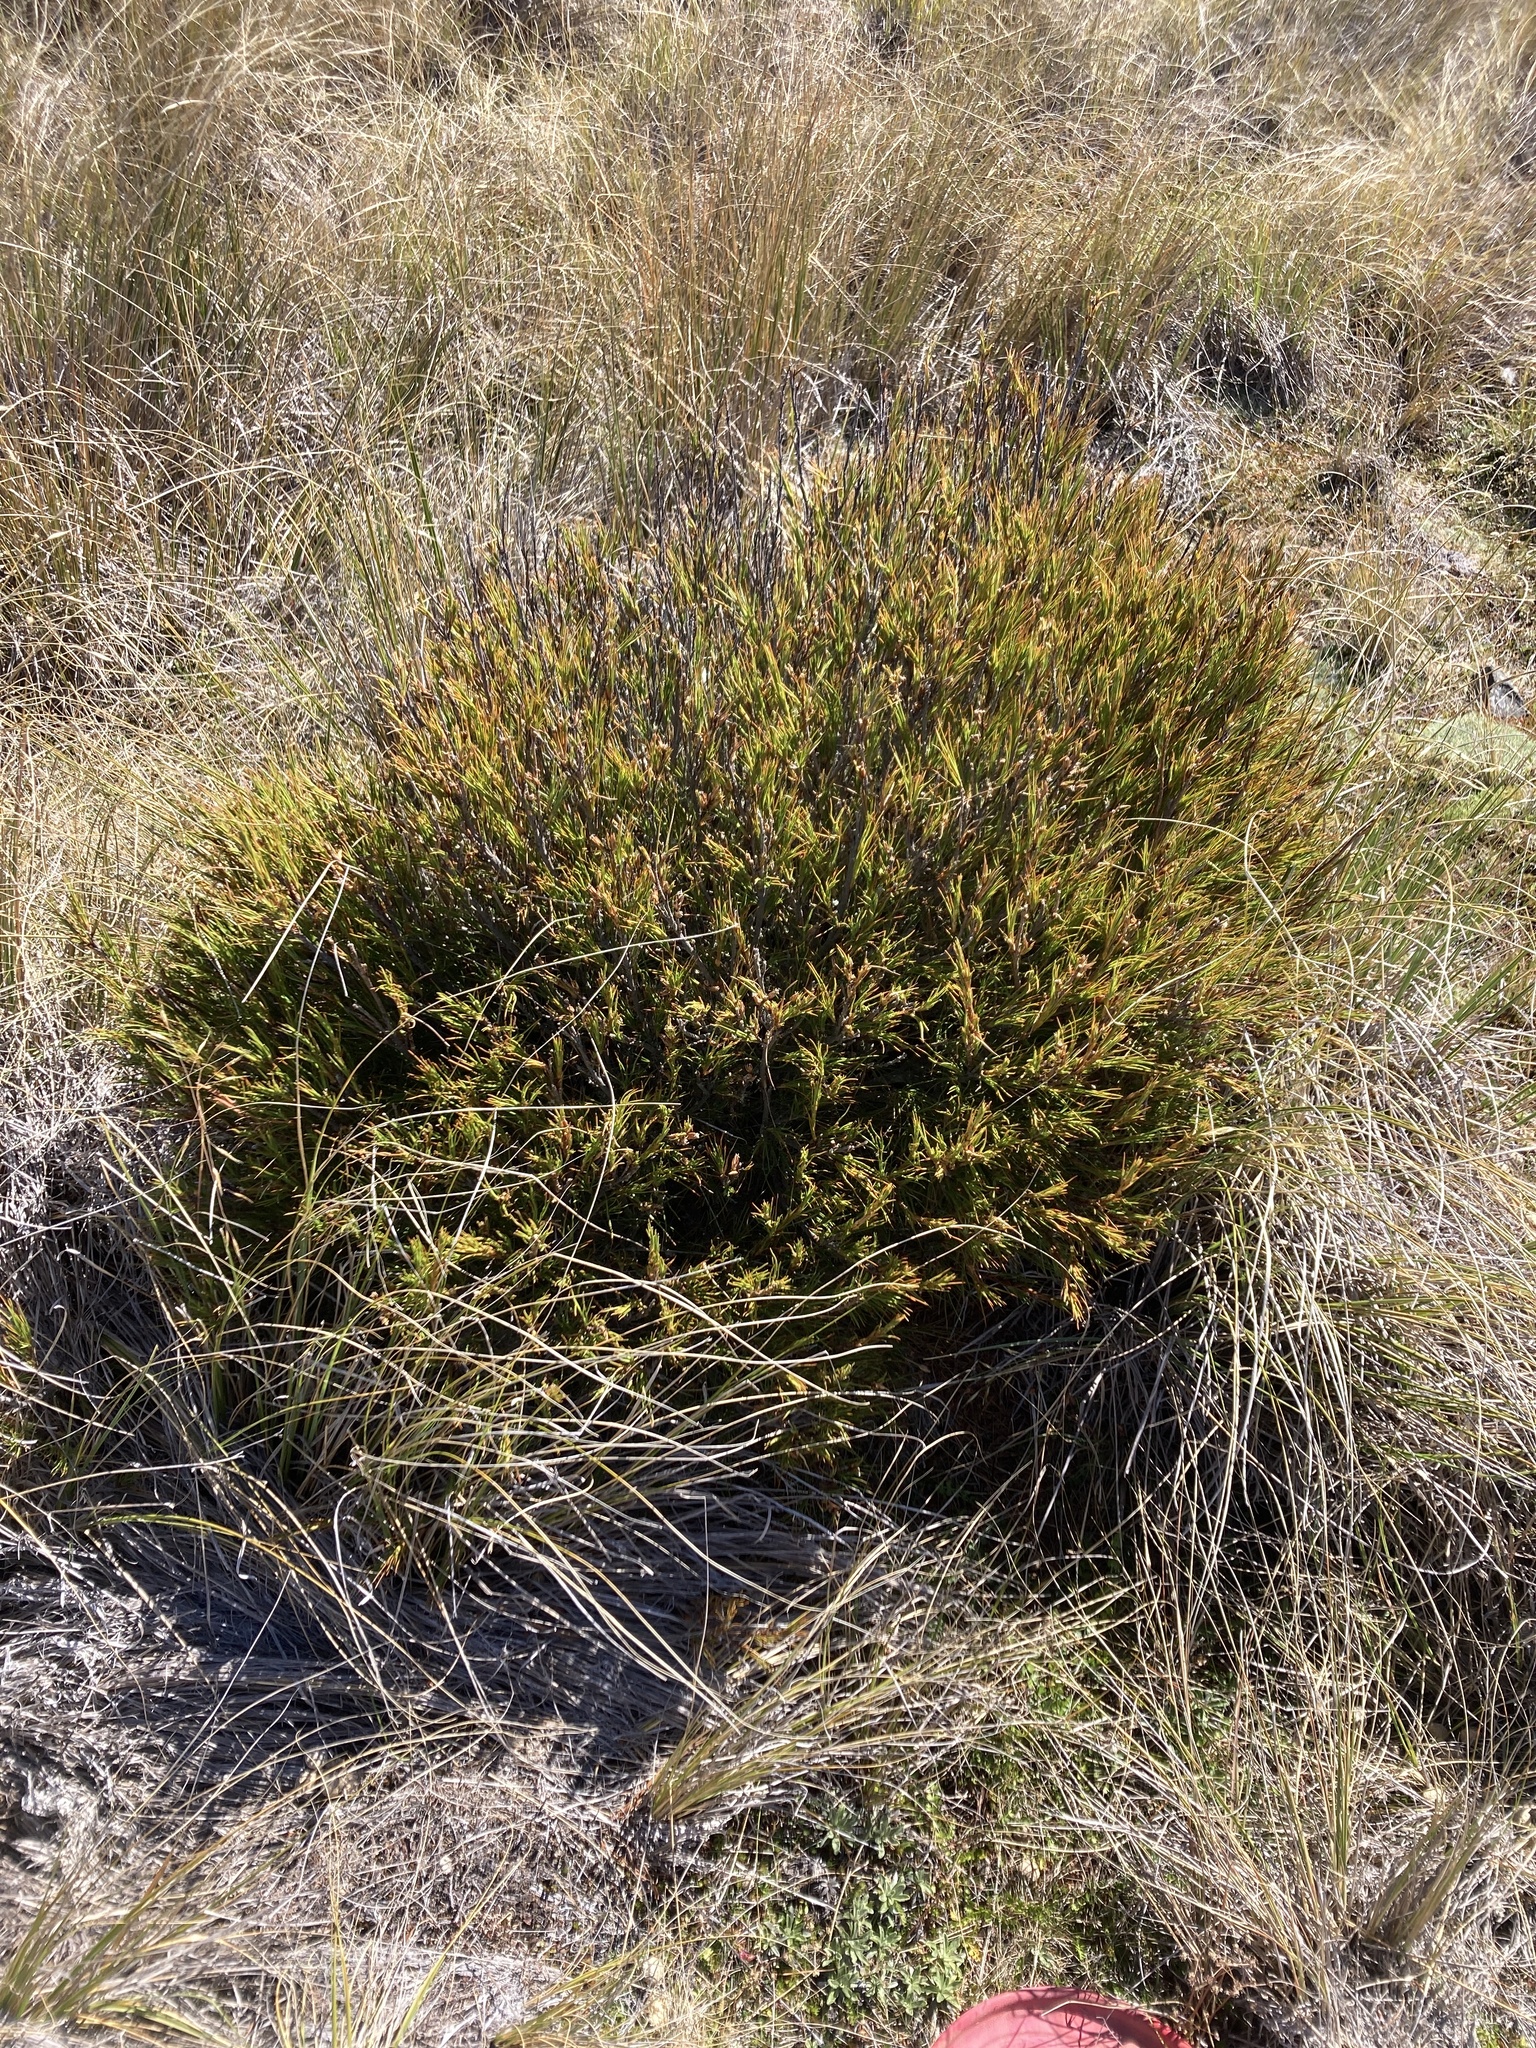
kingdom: Plantae
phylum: Tracheophyta
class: Magnoliopsida
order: Ericales
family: Ericaceae
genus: Dracophyllum
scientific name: Dracophyllum rosmarinifolium
